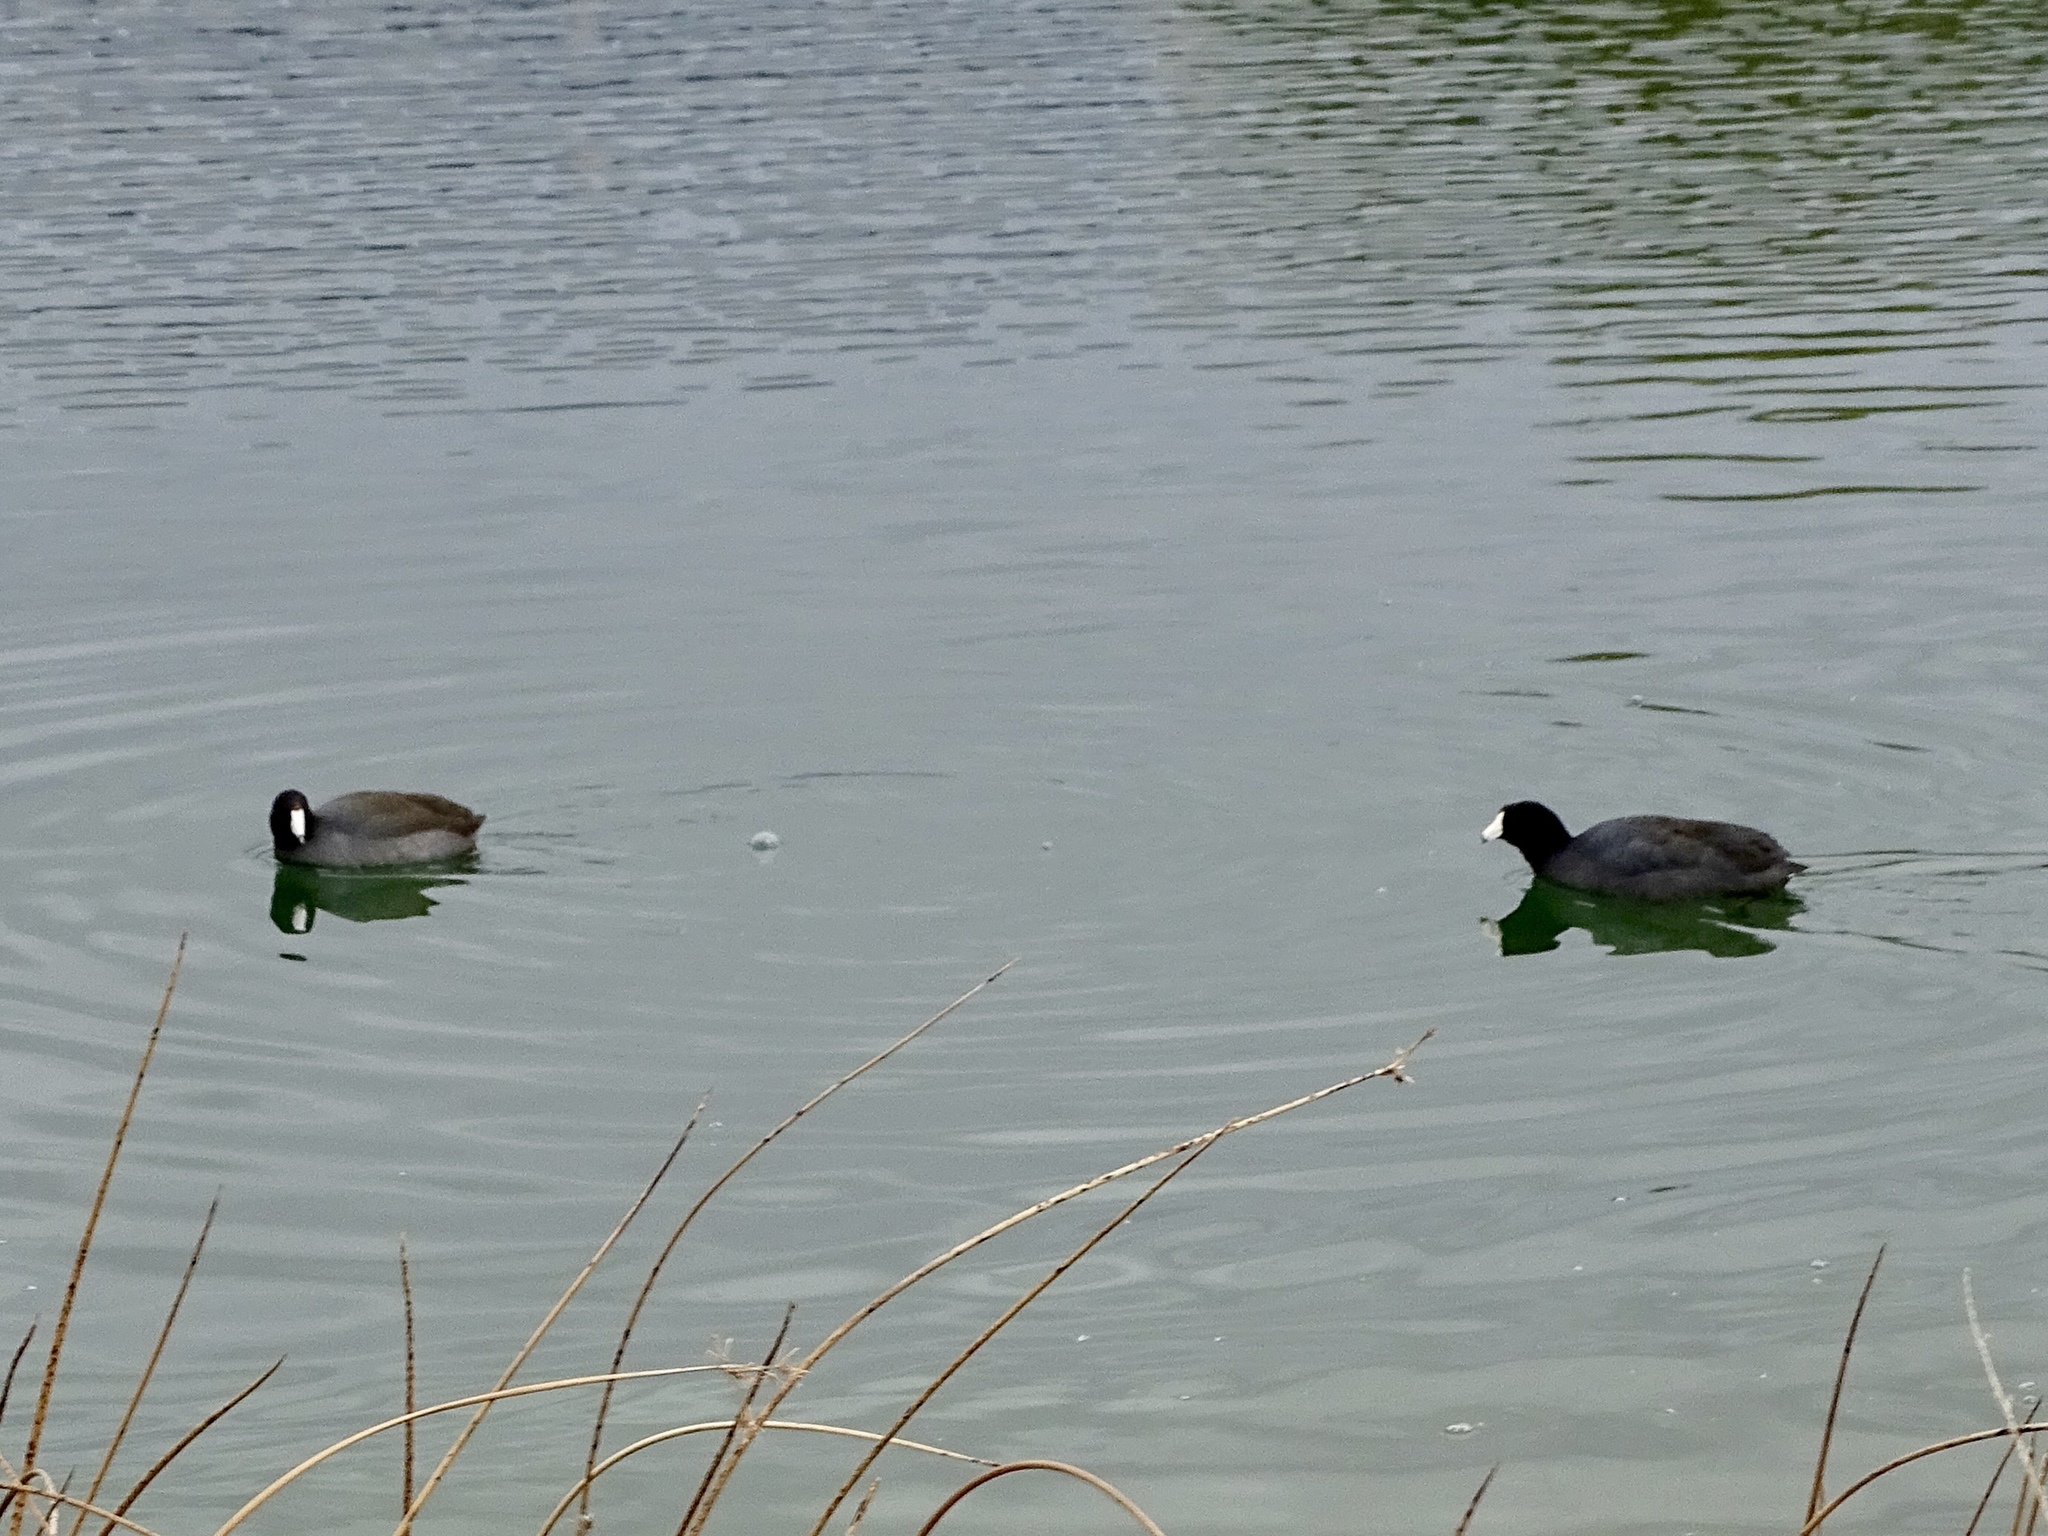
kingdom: Animalia
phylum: Chordata
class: Aves
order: Gruiformes
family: Rallidae
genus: Fulica
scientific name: Fulica americana
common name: American coot
